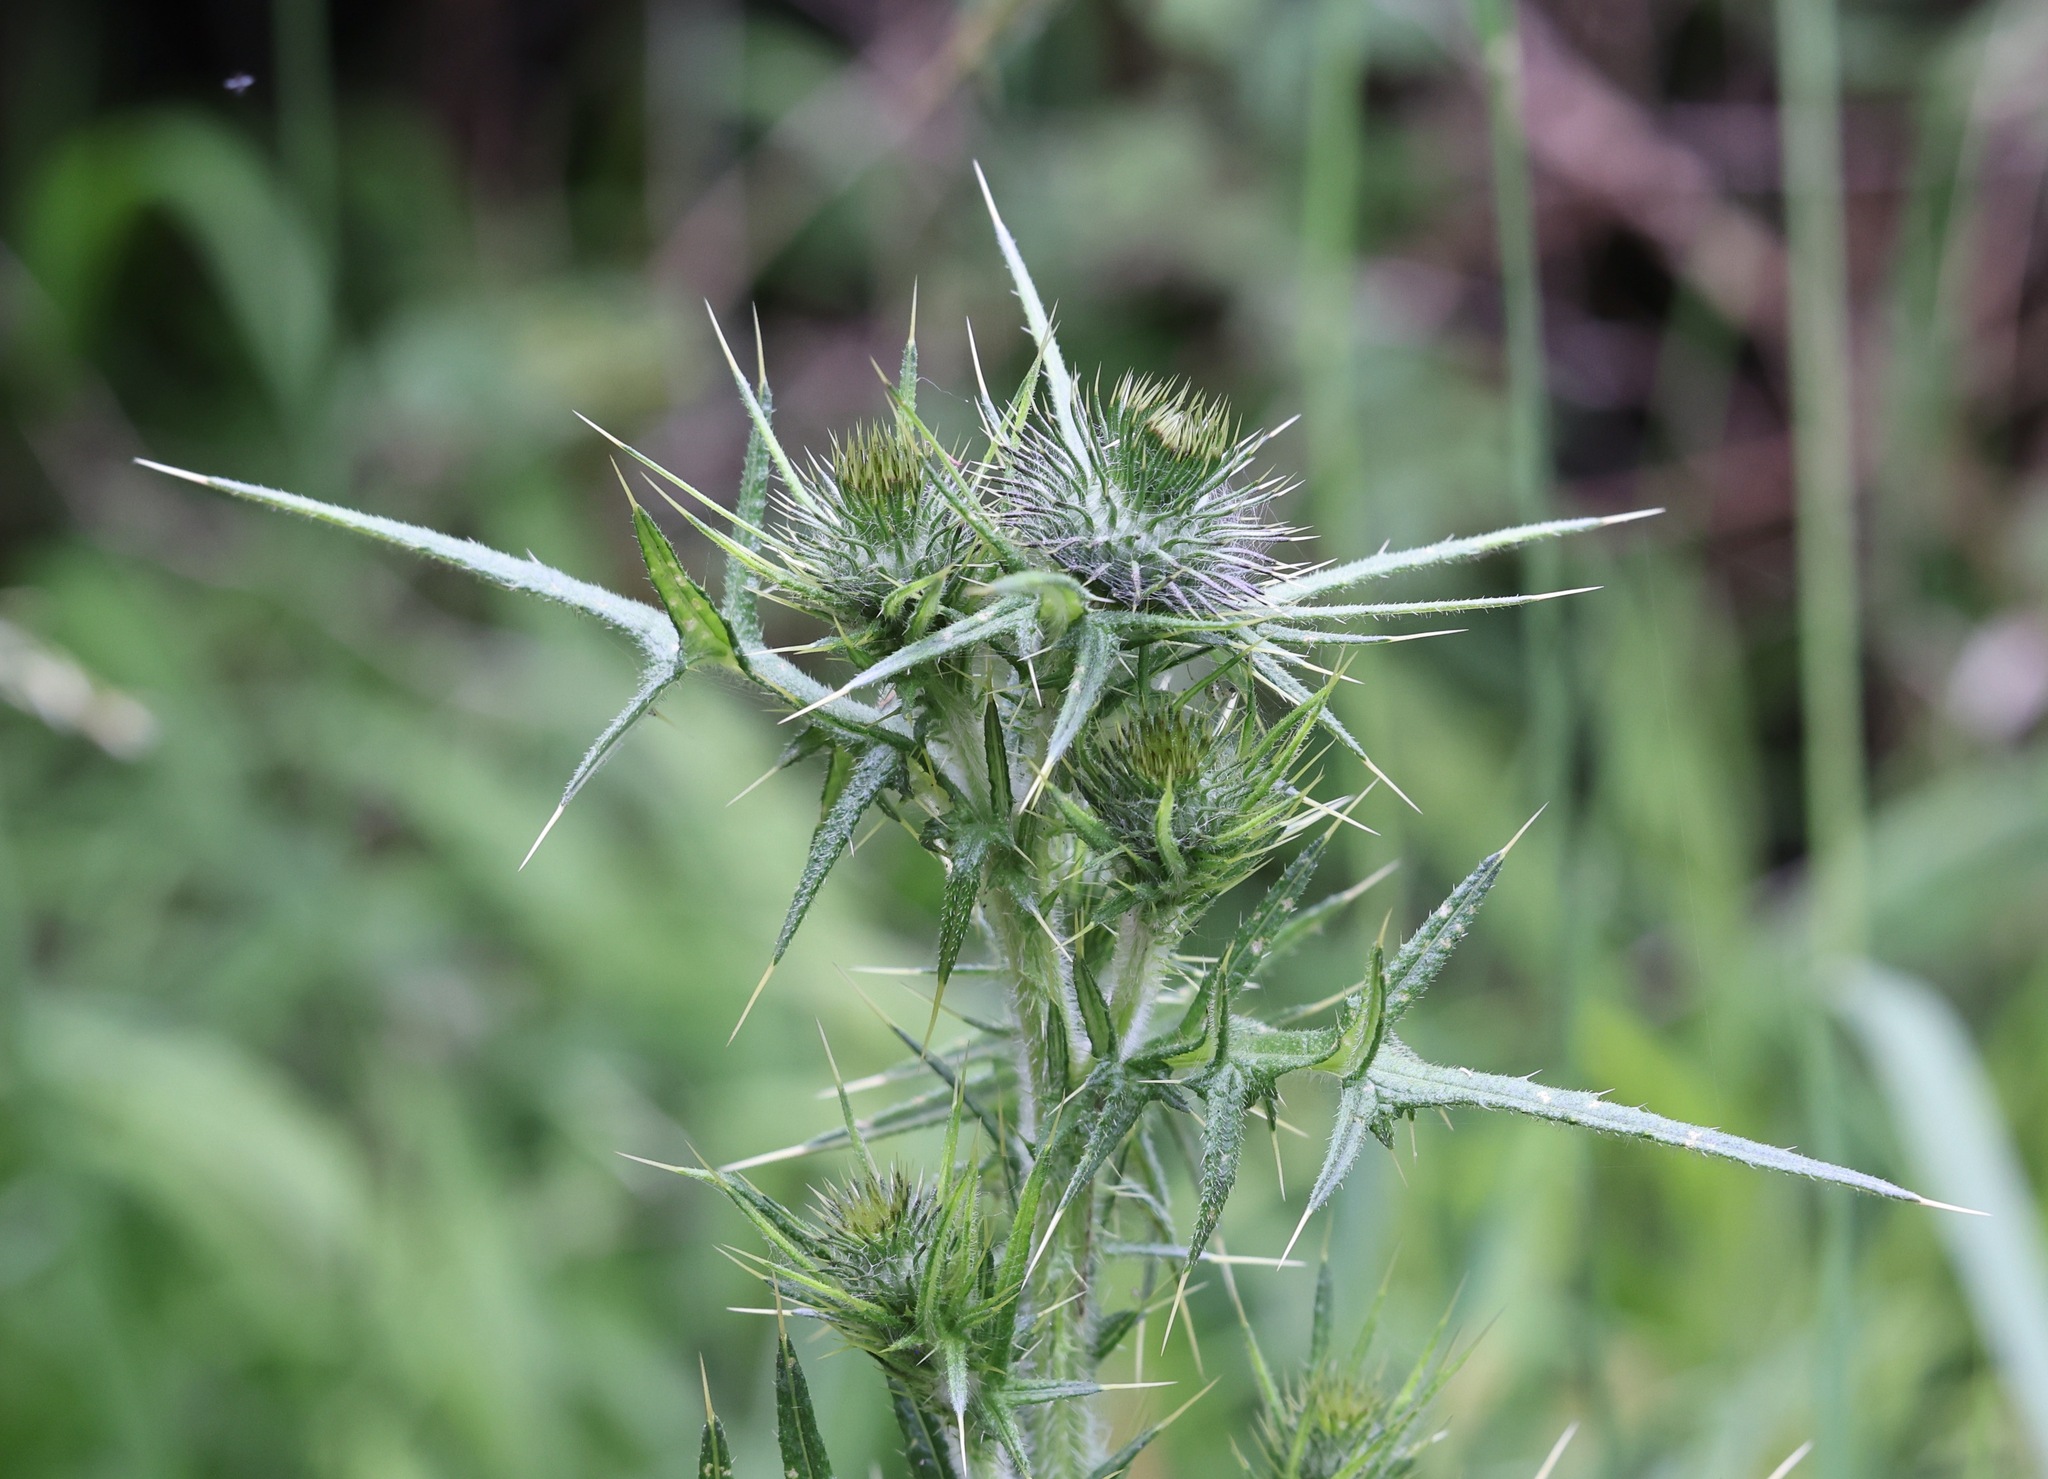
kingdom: Plantae
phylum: Tracheophyta
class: Magnoliopsida
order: Asterales
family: Asteraceae
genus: Cirsium
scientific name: Cirsium vulgare
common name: Bull thistle
